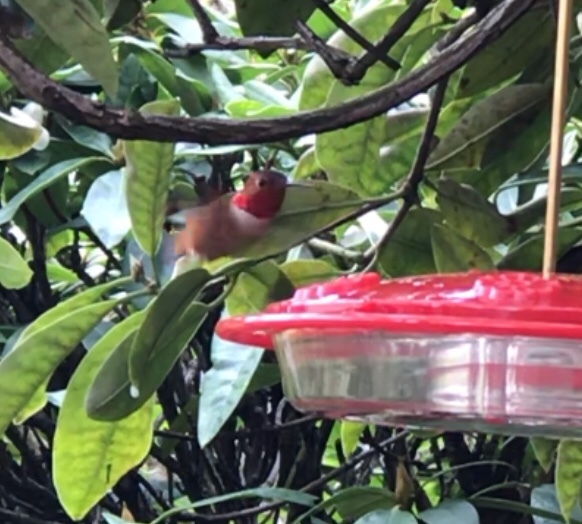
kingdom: Animalia
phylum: Chordata
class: Aves
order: Apodiformes
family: Trochilidae
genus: Selasphorus
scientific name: Selasphorus rufus
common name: Rufous hummingbird
